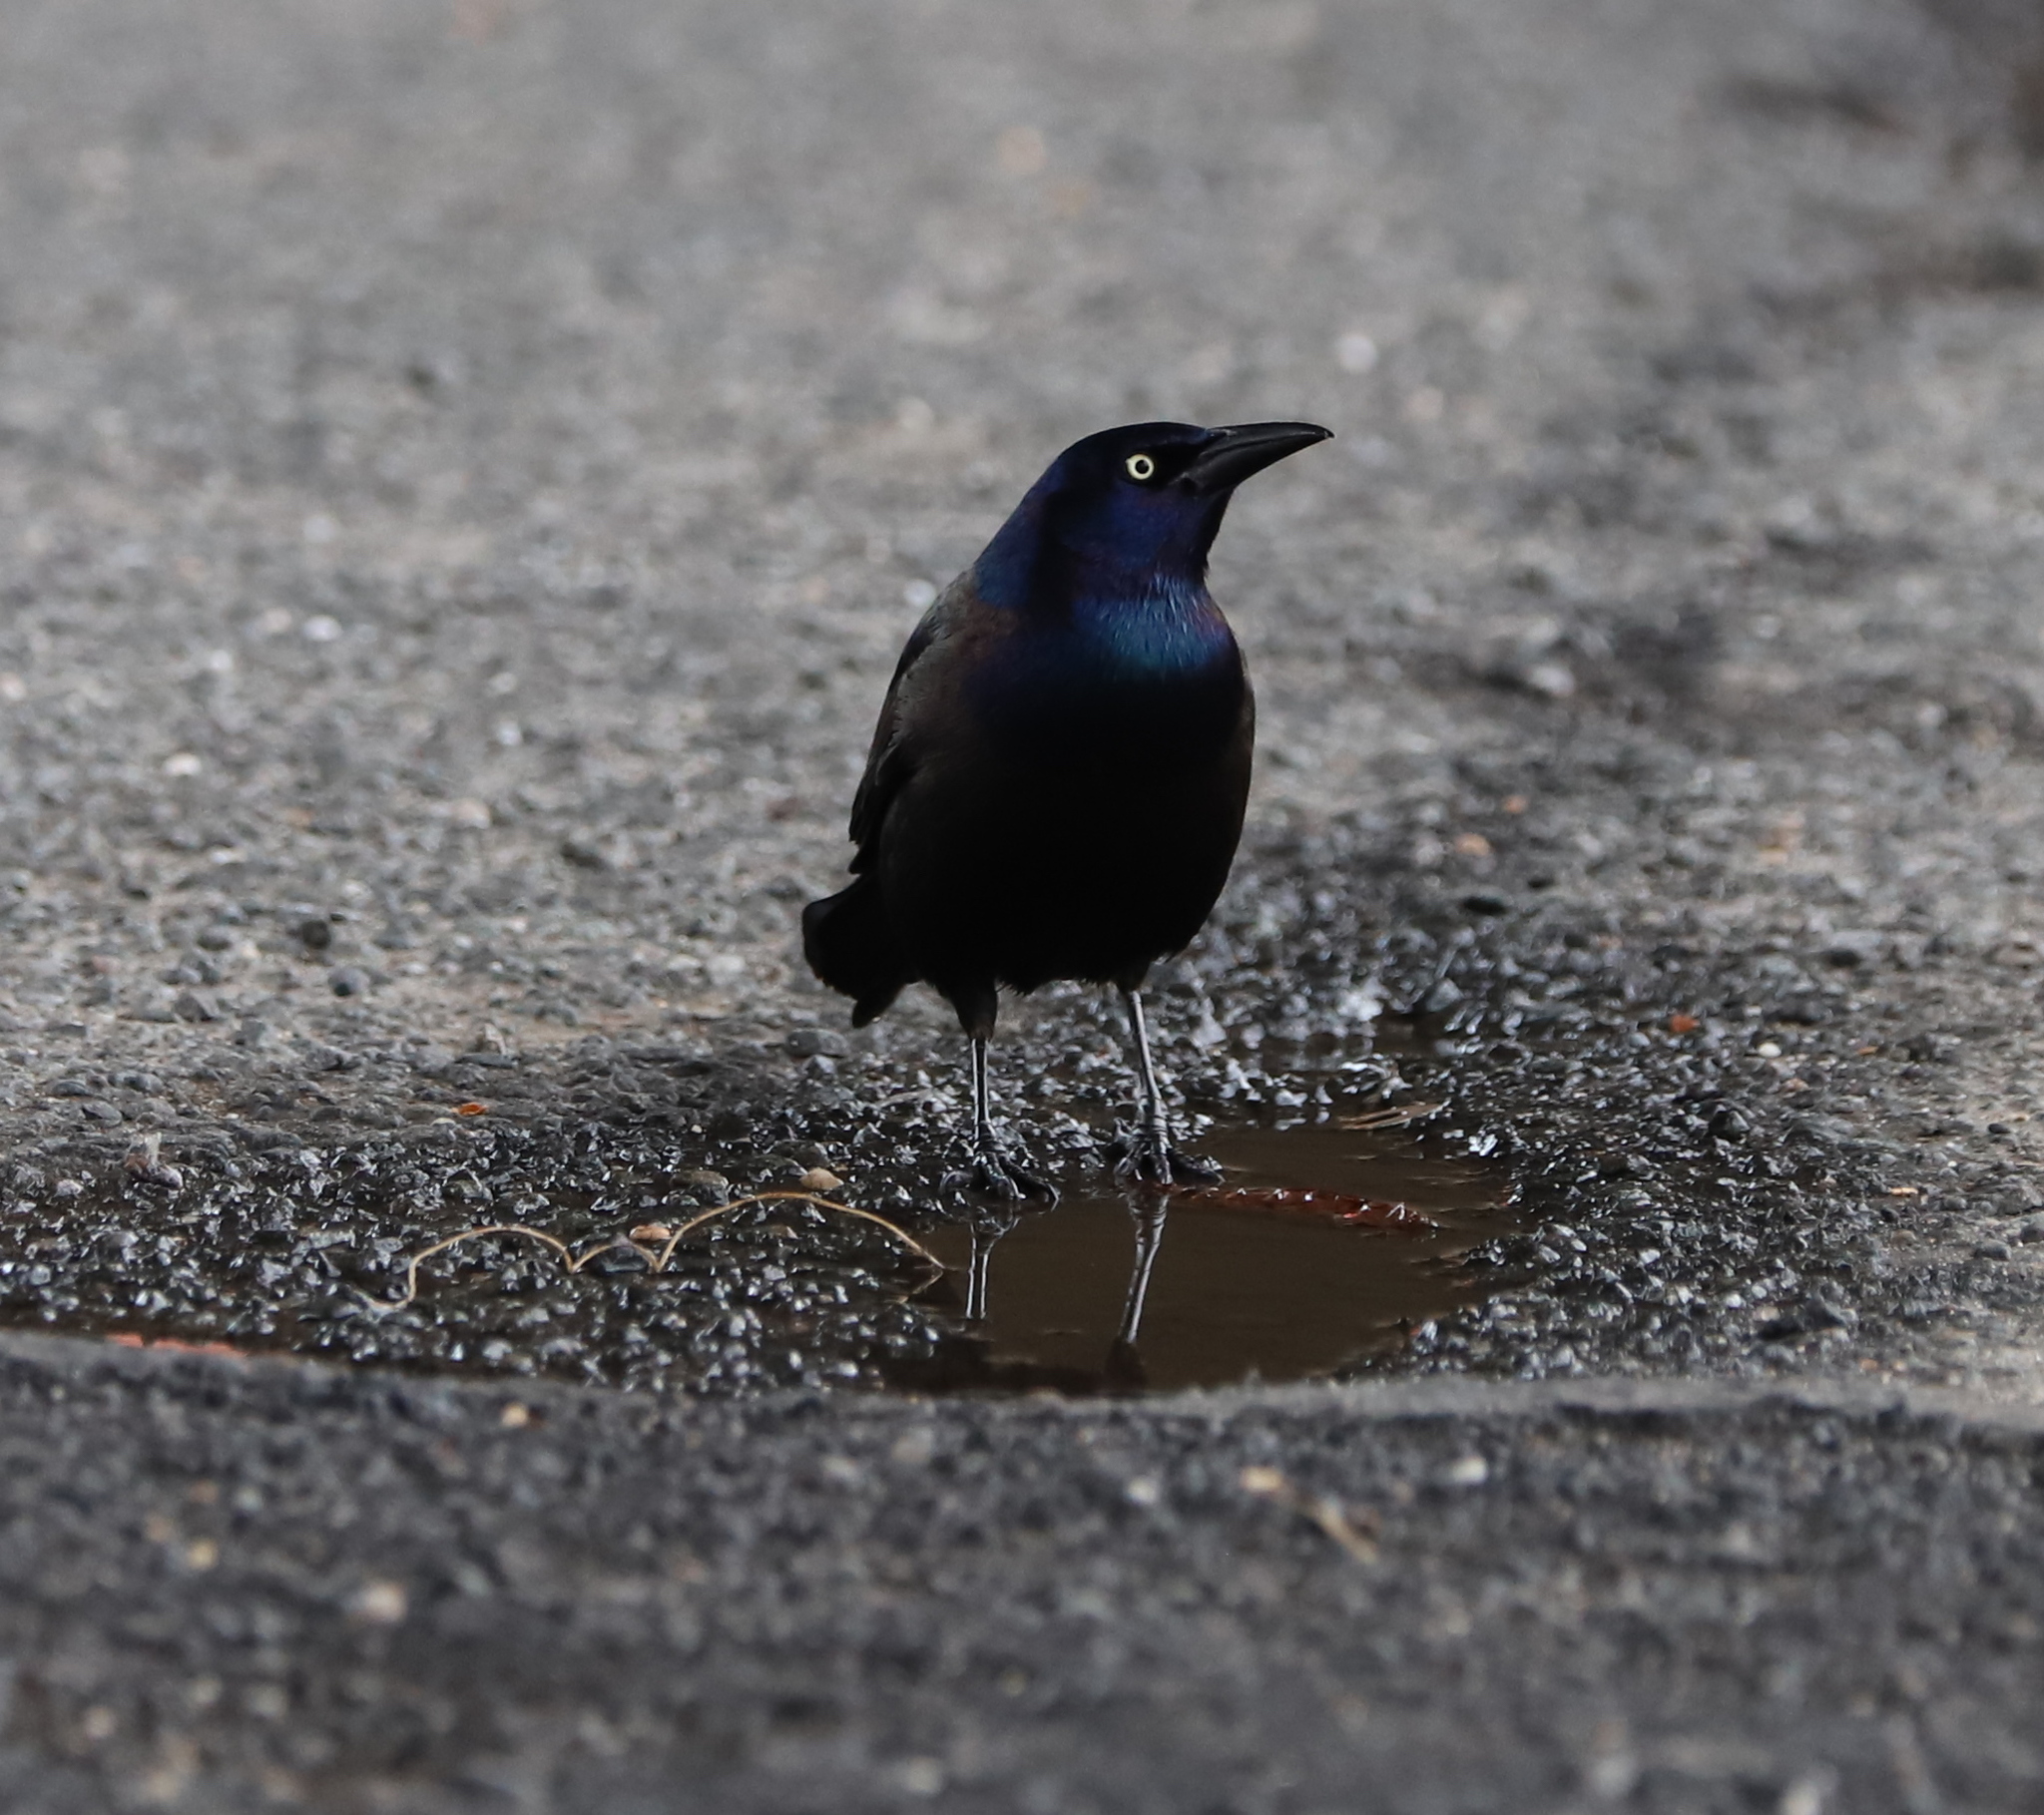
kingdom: Animalia
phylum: Chordata
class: Aves
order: Passeriformes
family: Icteridae
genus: Quiscalus
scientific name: Quiscalus quiscula
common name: Common grackle
